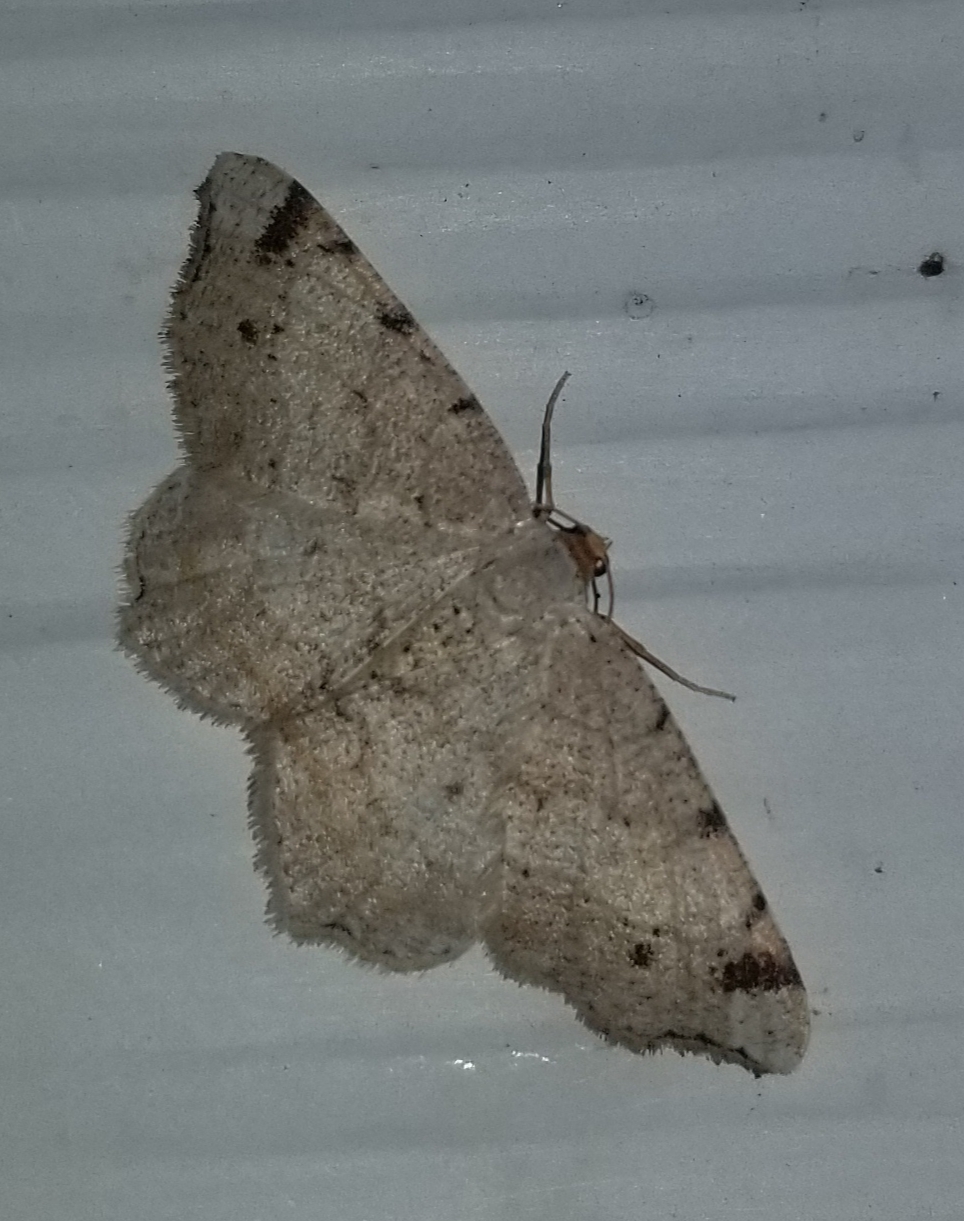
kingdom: Animalia
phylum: Arthropoda
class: Insecta
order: Lepidoptera
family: Geometridae
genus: Macaria
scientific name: Macaria bisignata
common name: Red-headed inchworm
